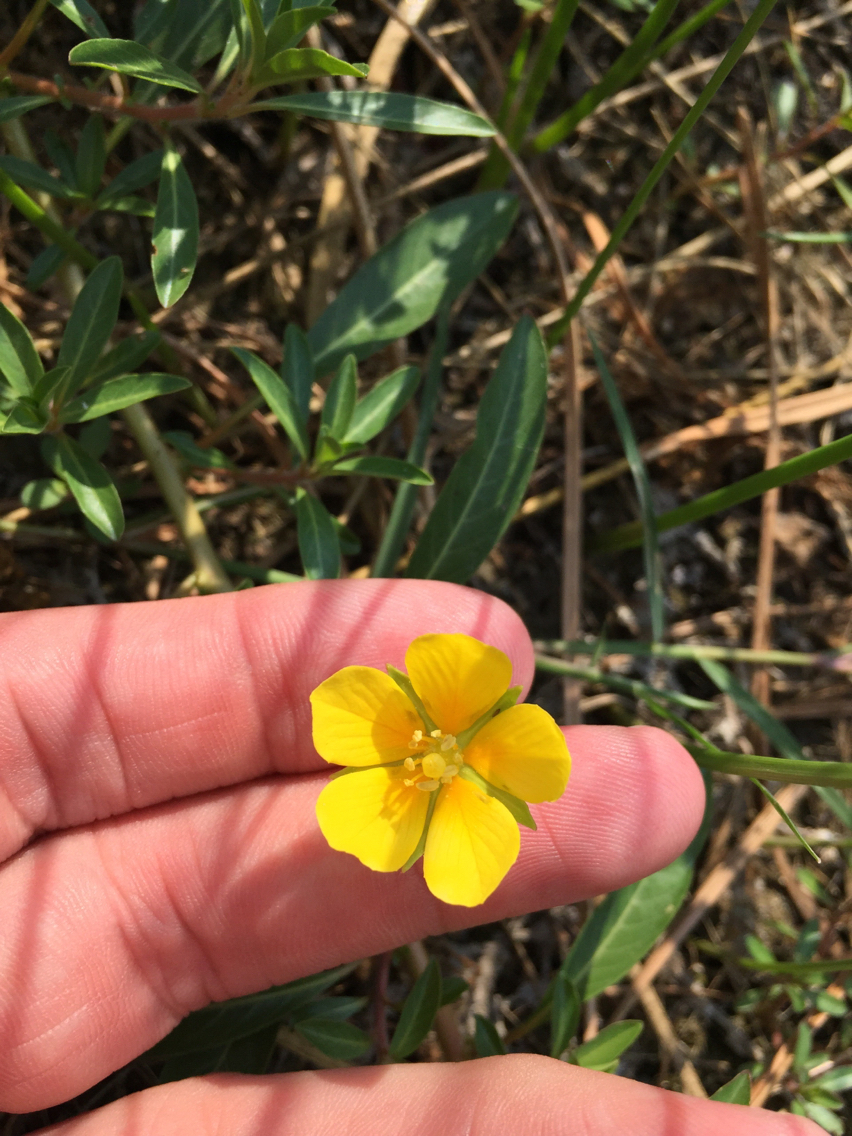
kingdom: Plantae
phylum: Tracheophyta
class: Magnoliopsida
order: Myrtales
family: Onagraceae
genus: Ludwigia
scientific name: Ludwigia peploides
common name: Floating primrose-willow
